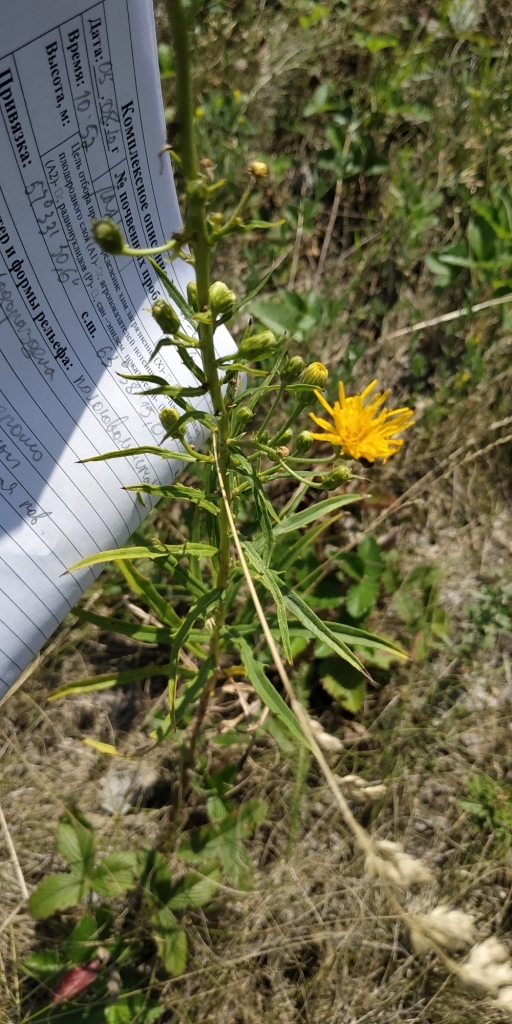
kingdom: Plantae
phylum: Tracheophyta
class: Magnoliopsida
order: Asterales
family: Asteraceae
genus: Hieracium
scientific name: Hieracium umbellatum
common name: Northern hawkweed
